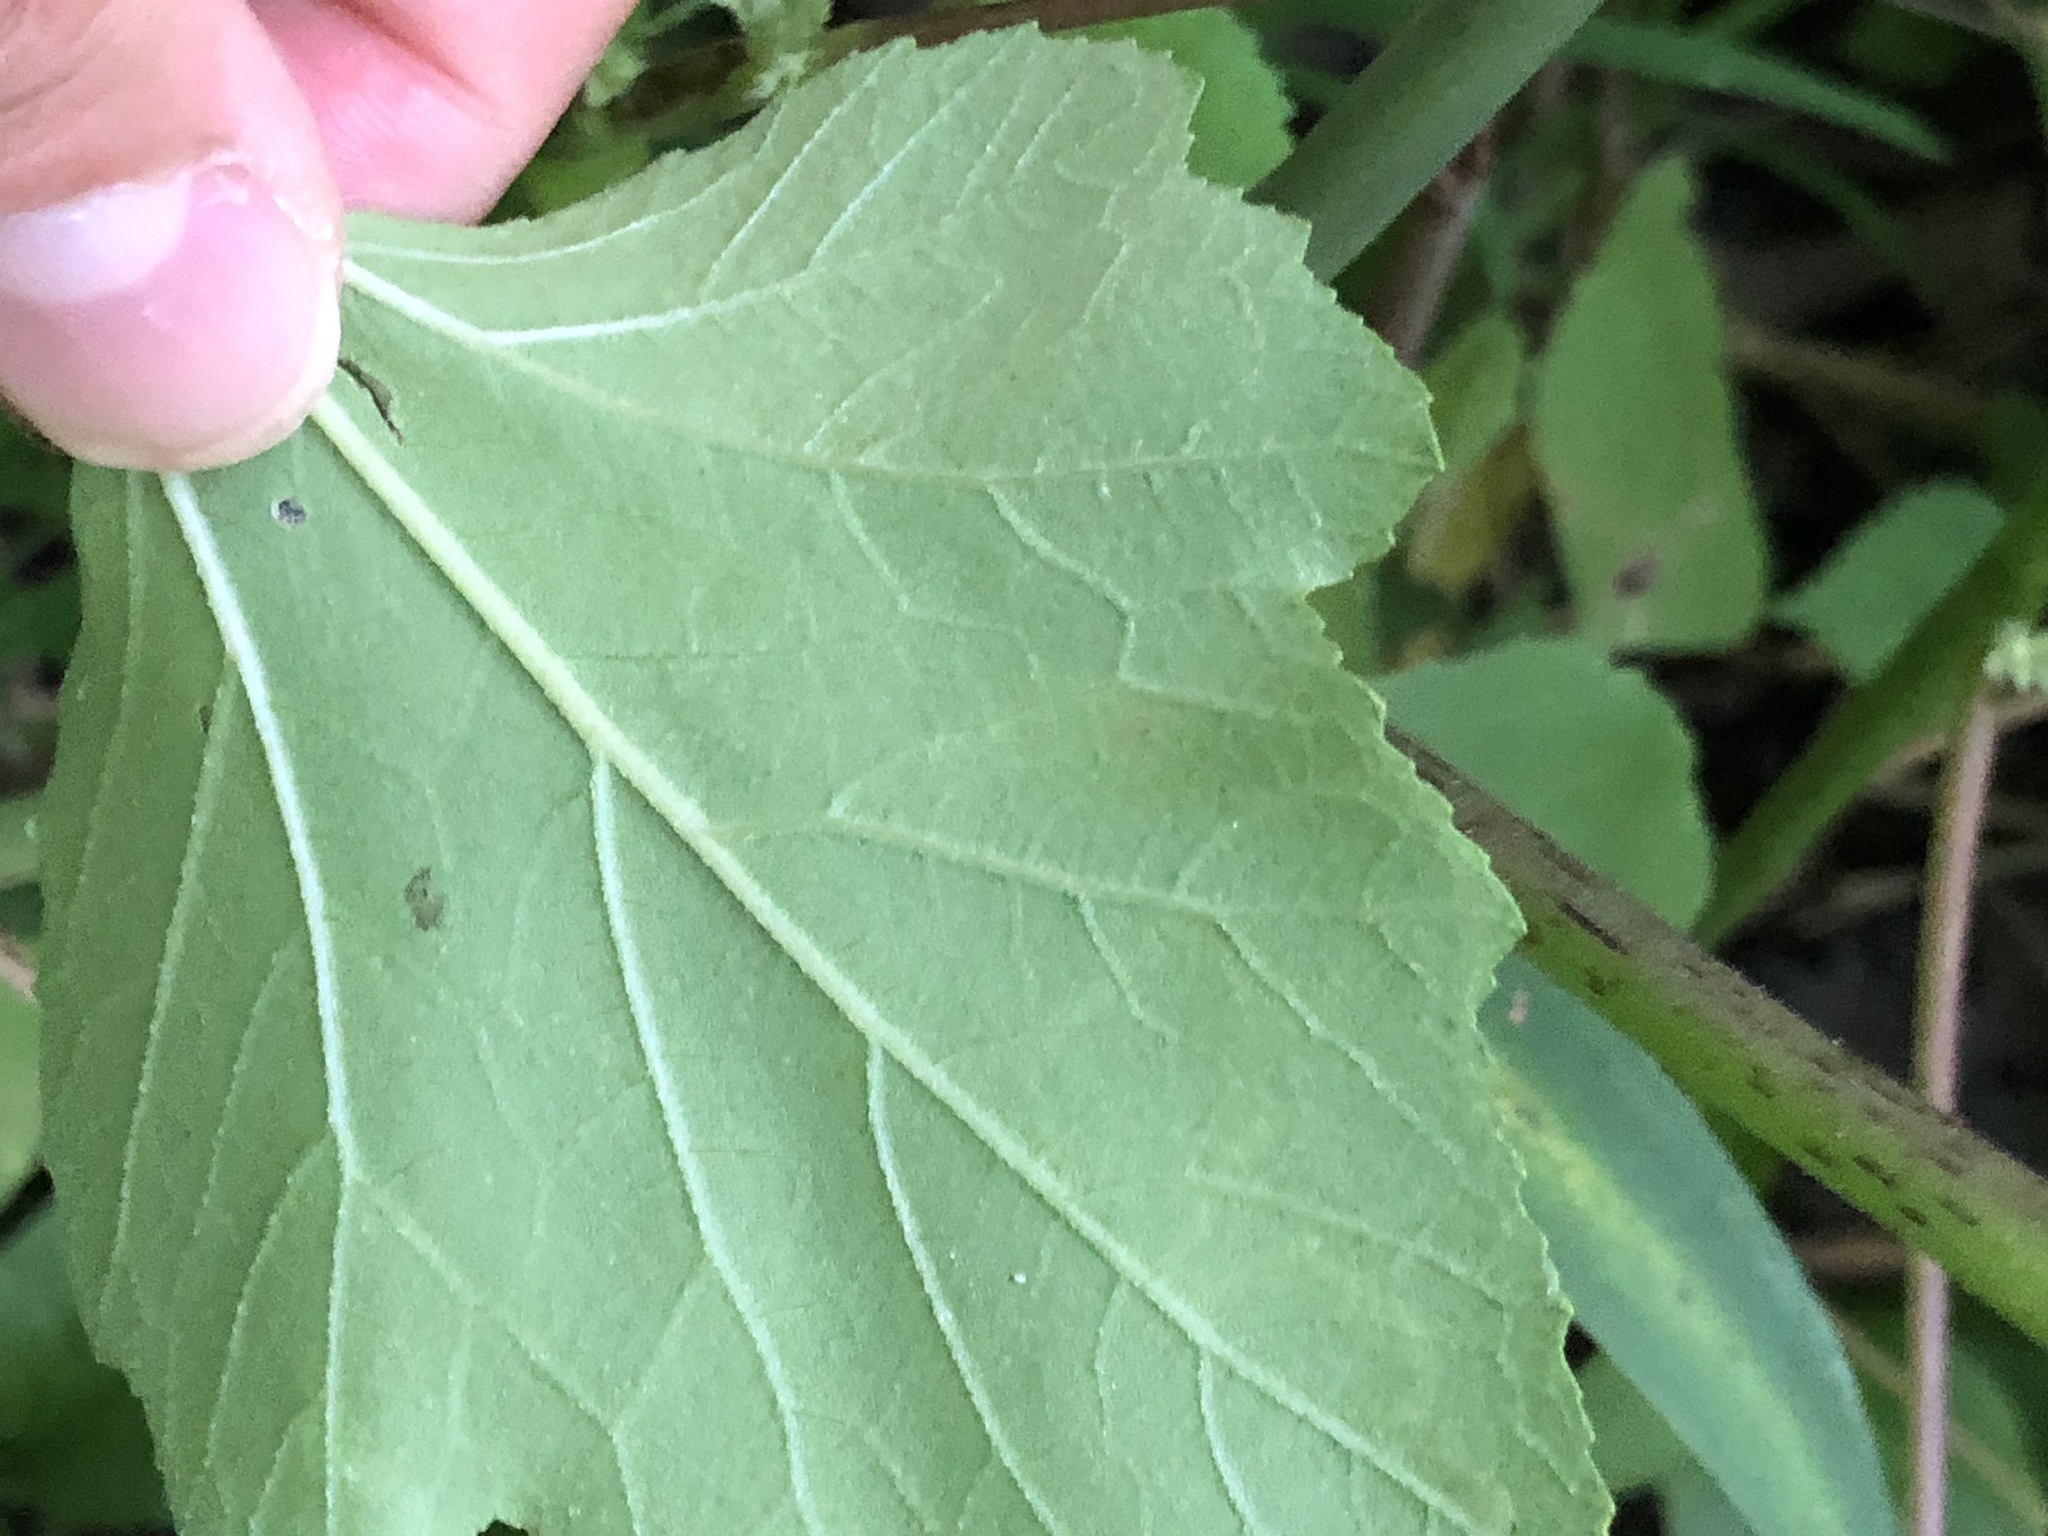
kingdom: Animalia
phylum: Arthropoda
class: Insecta
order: Diptera
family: Agromyzidae
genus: Liriomyza
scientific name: Liriomyza eupatorii
